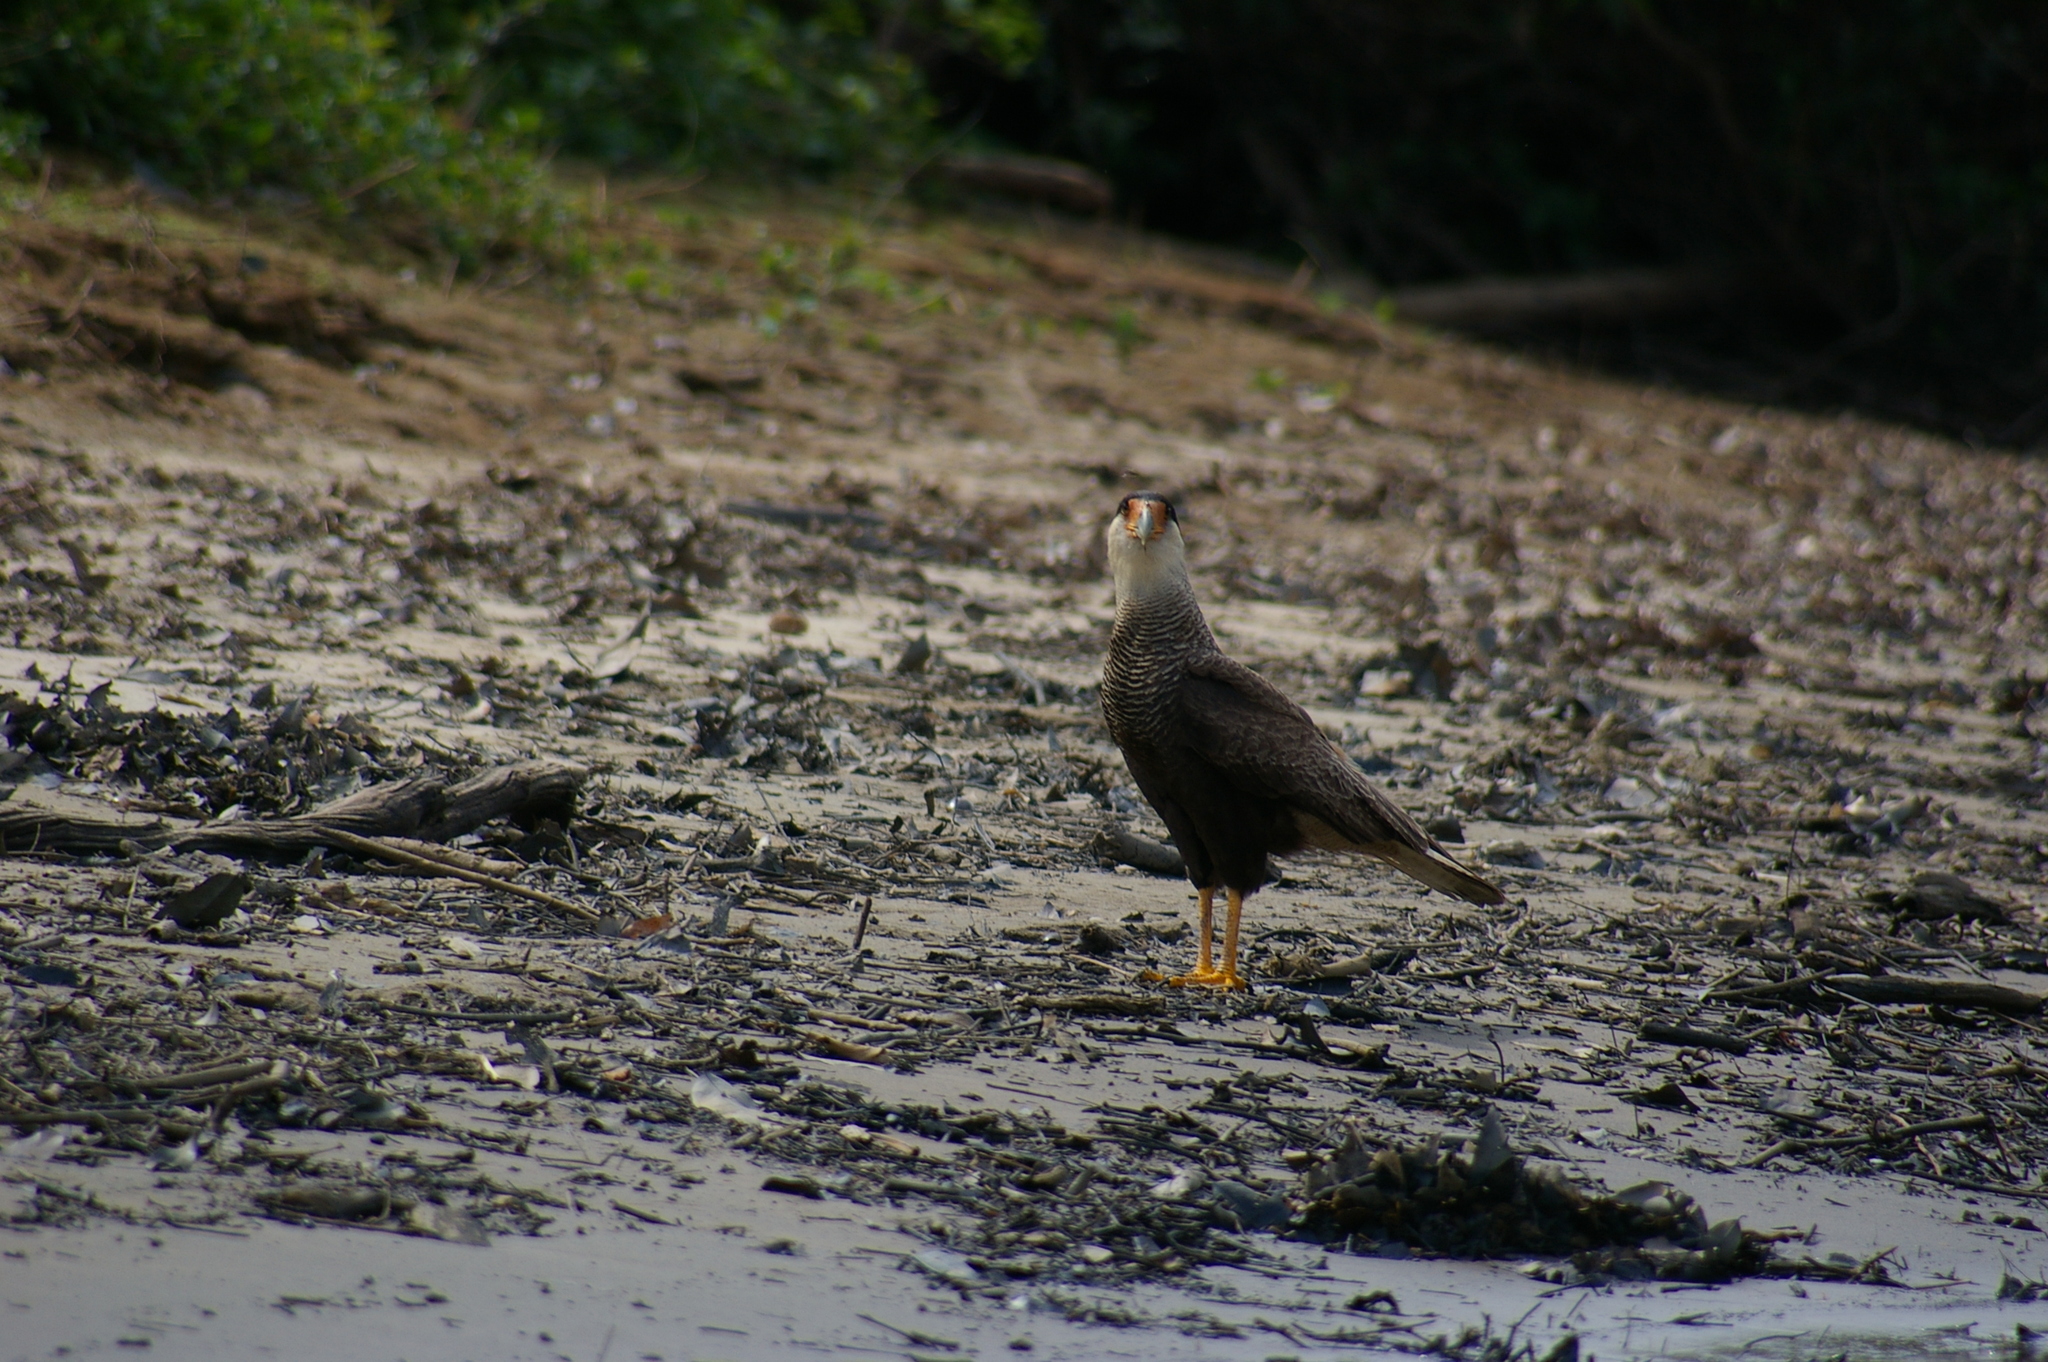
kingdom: Animalia
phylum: Chordata
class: Aves
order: Falconiformes
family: Falconidae
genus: Caracara
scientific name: Caracara plancus
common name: Southern caracara
